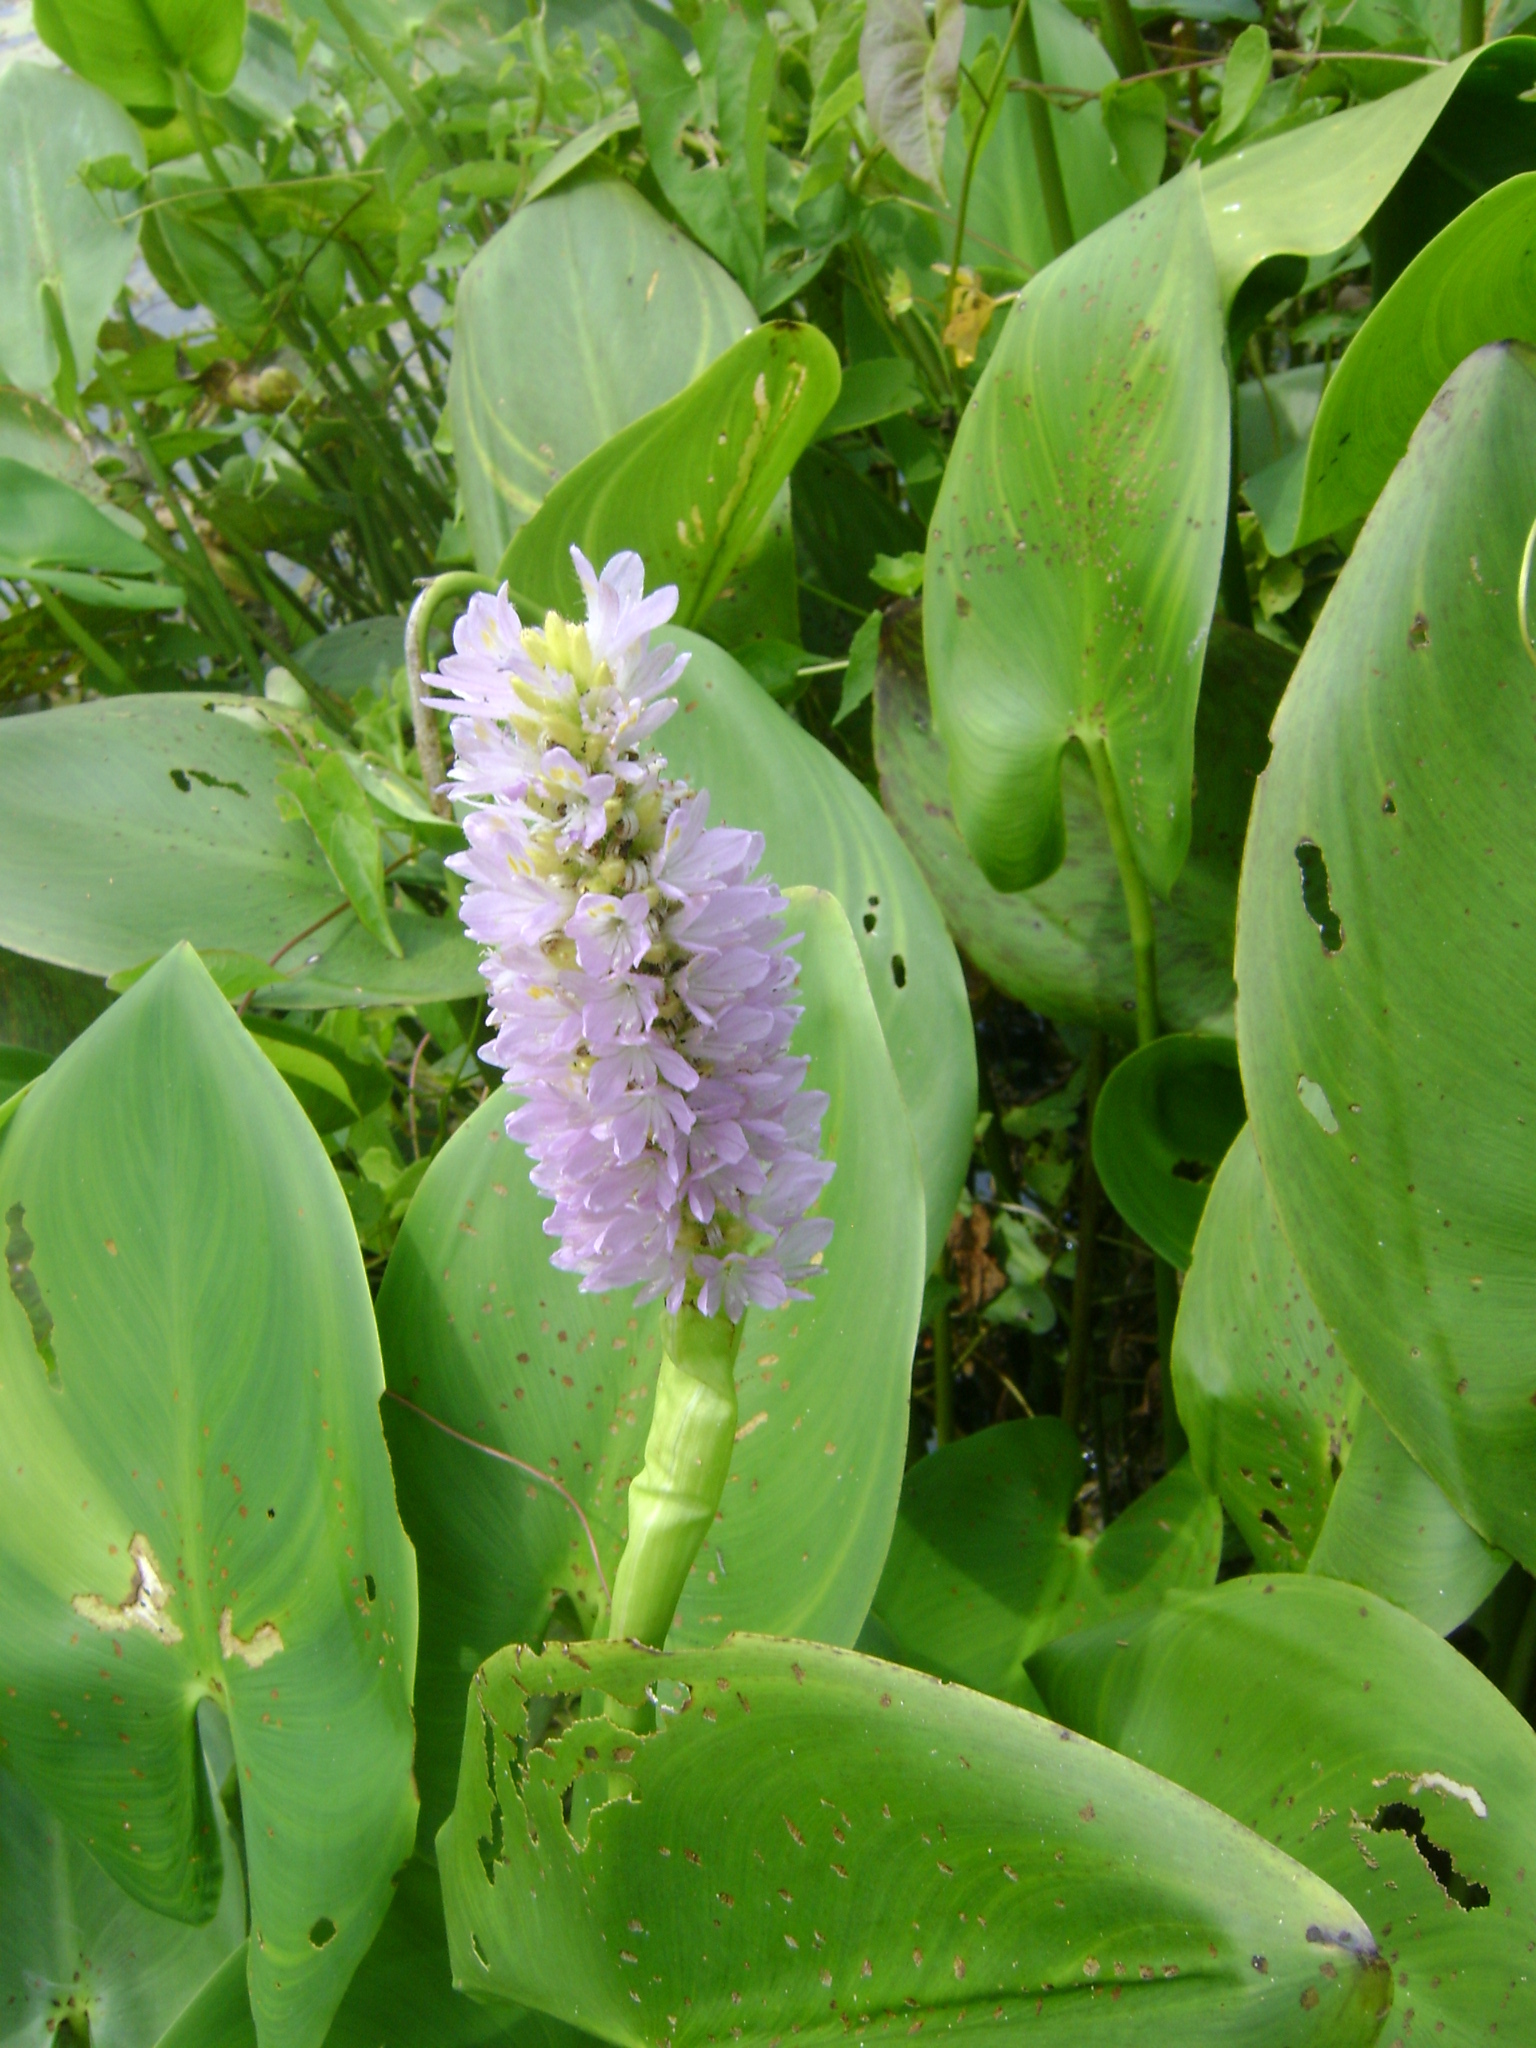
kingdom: Plantae
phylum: Tracheophyta
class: Liliopsida
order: Commelinales
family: Pontederiaceae
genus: Pontederia
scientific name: Pontederia sagittata
